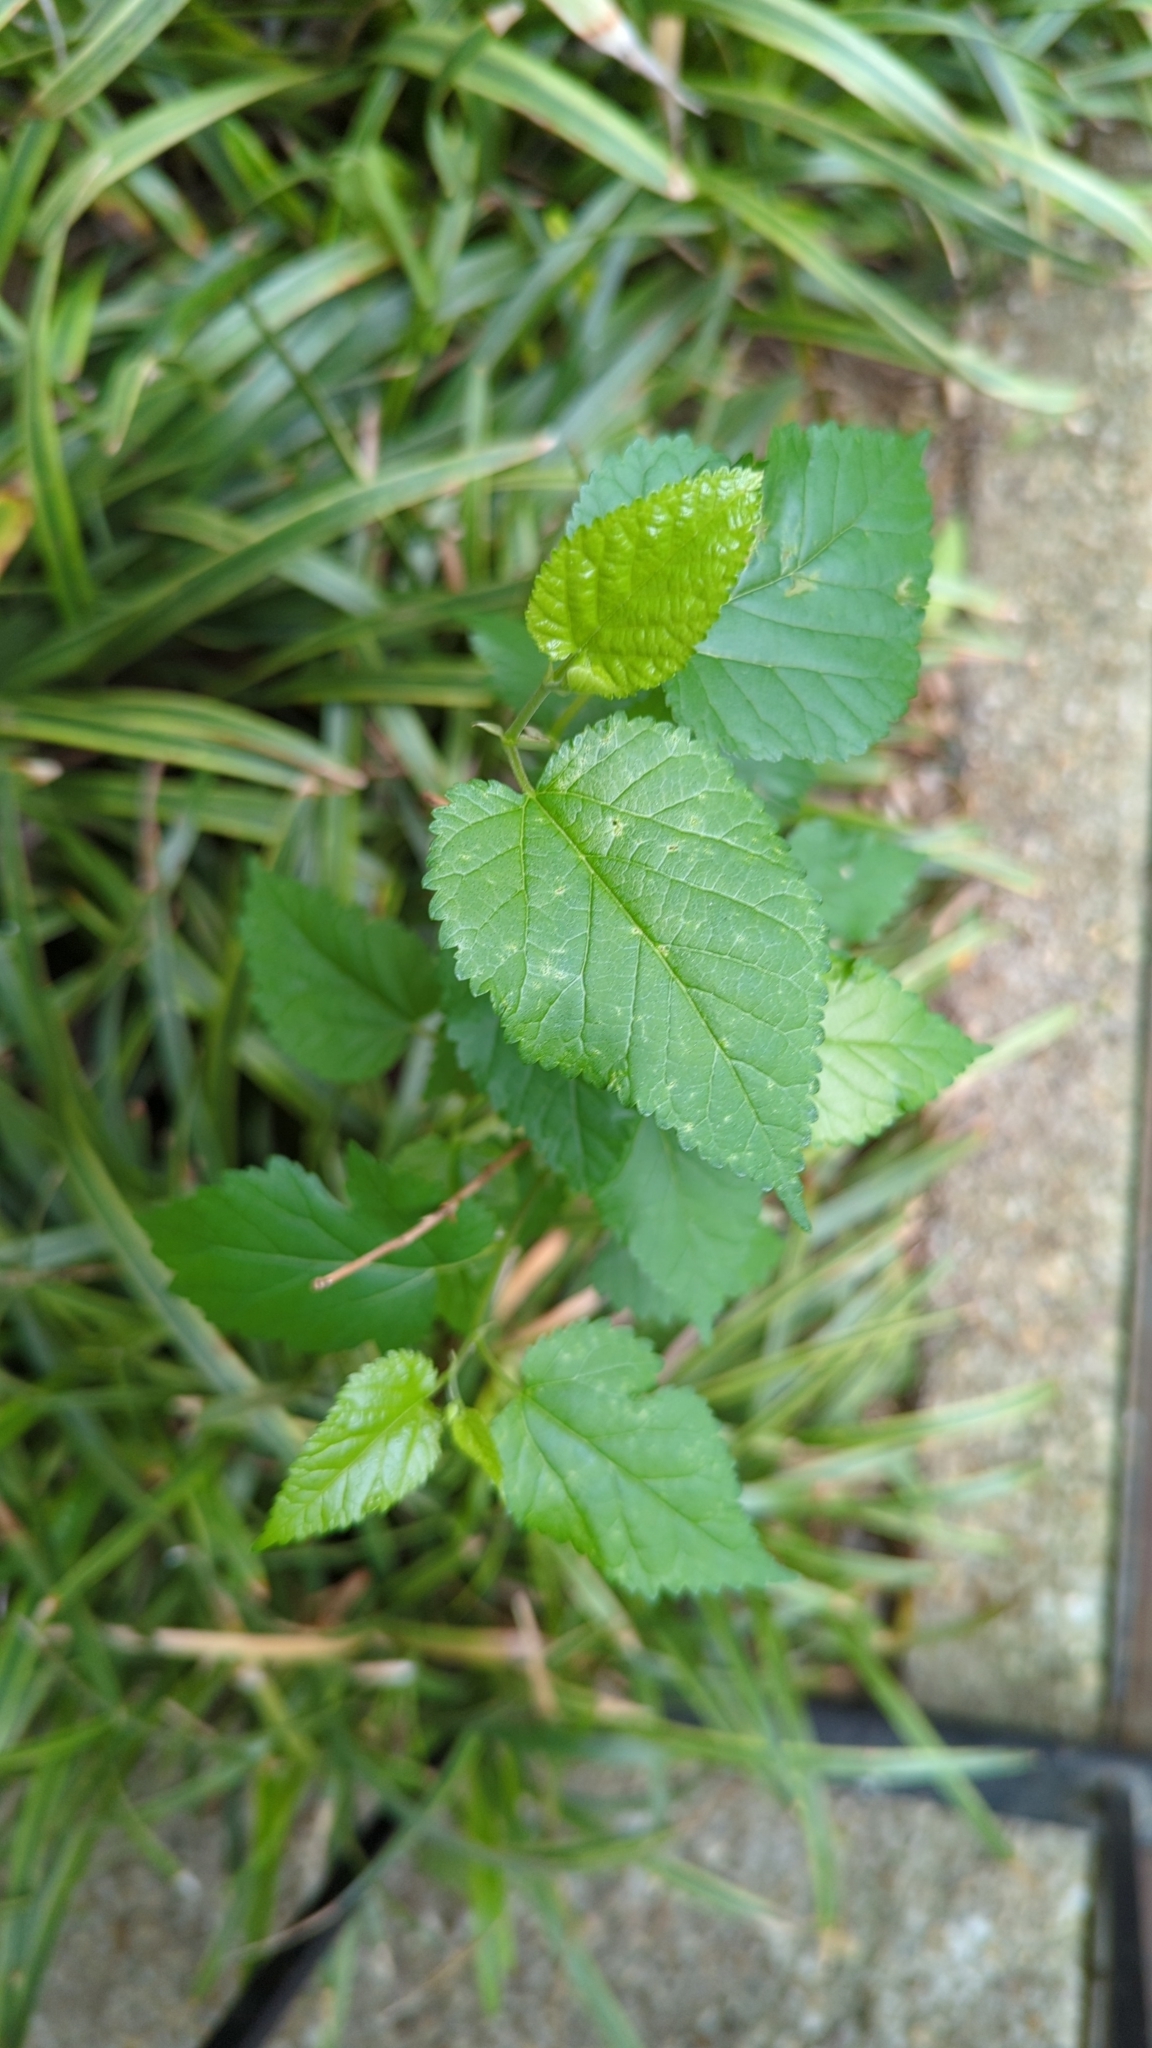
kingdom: Plantae
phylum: Tracheophyta
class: Magnoliopsida
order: Rosales
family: Moraceae
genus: Morus
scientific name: Morus alba
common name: White mulberry
